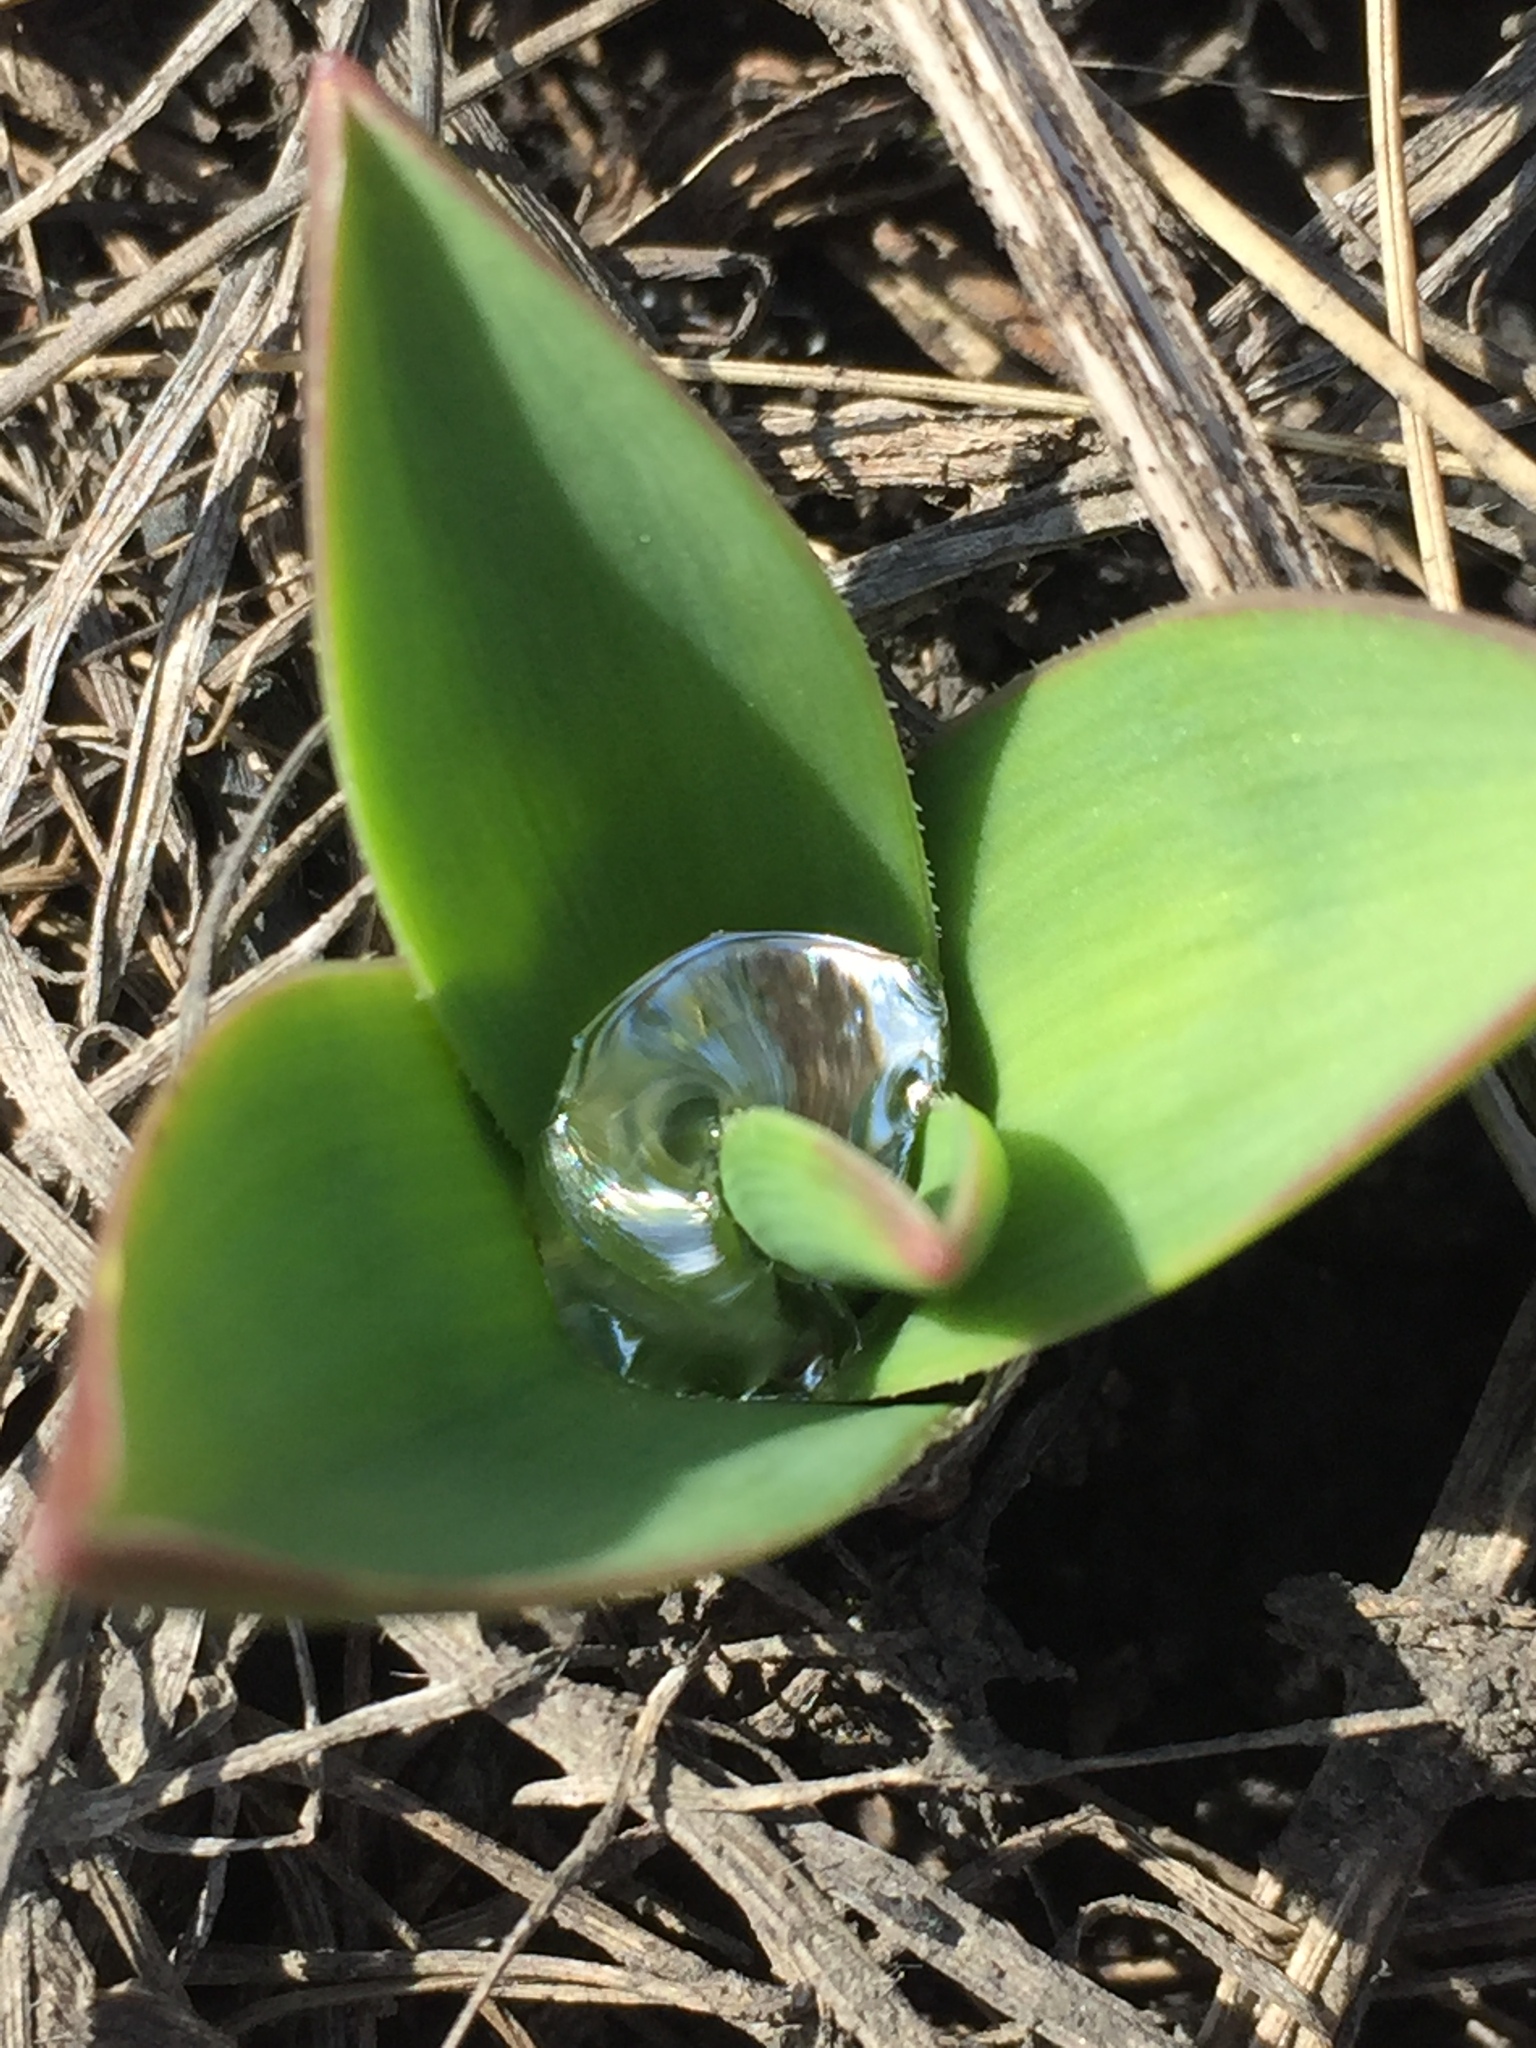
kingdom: Plantae
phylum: Tracheophyta
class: Liliopsida
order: Asparagales
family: Asparagaceae
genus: Bellevalia
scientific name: Bellevalia speciosa
